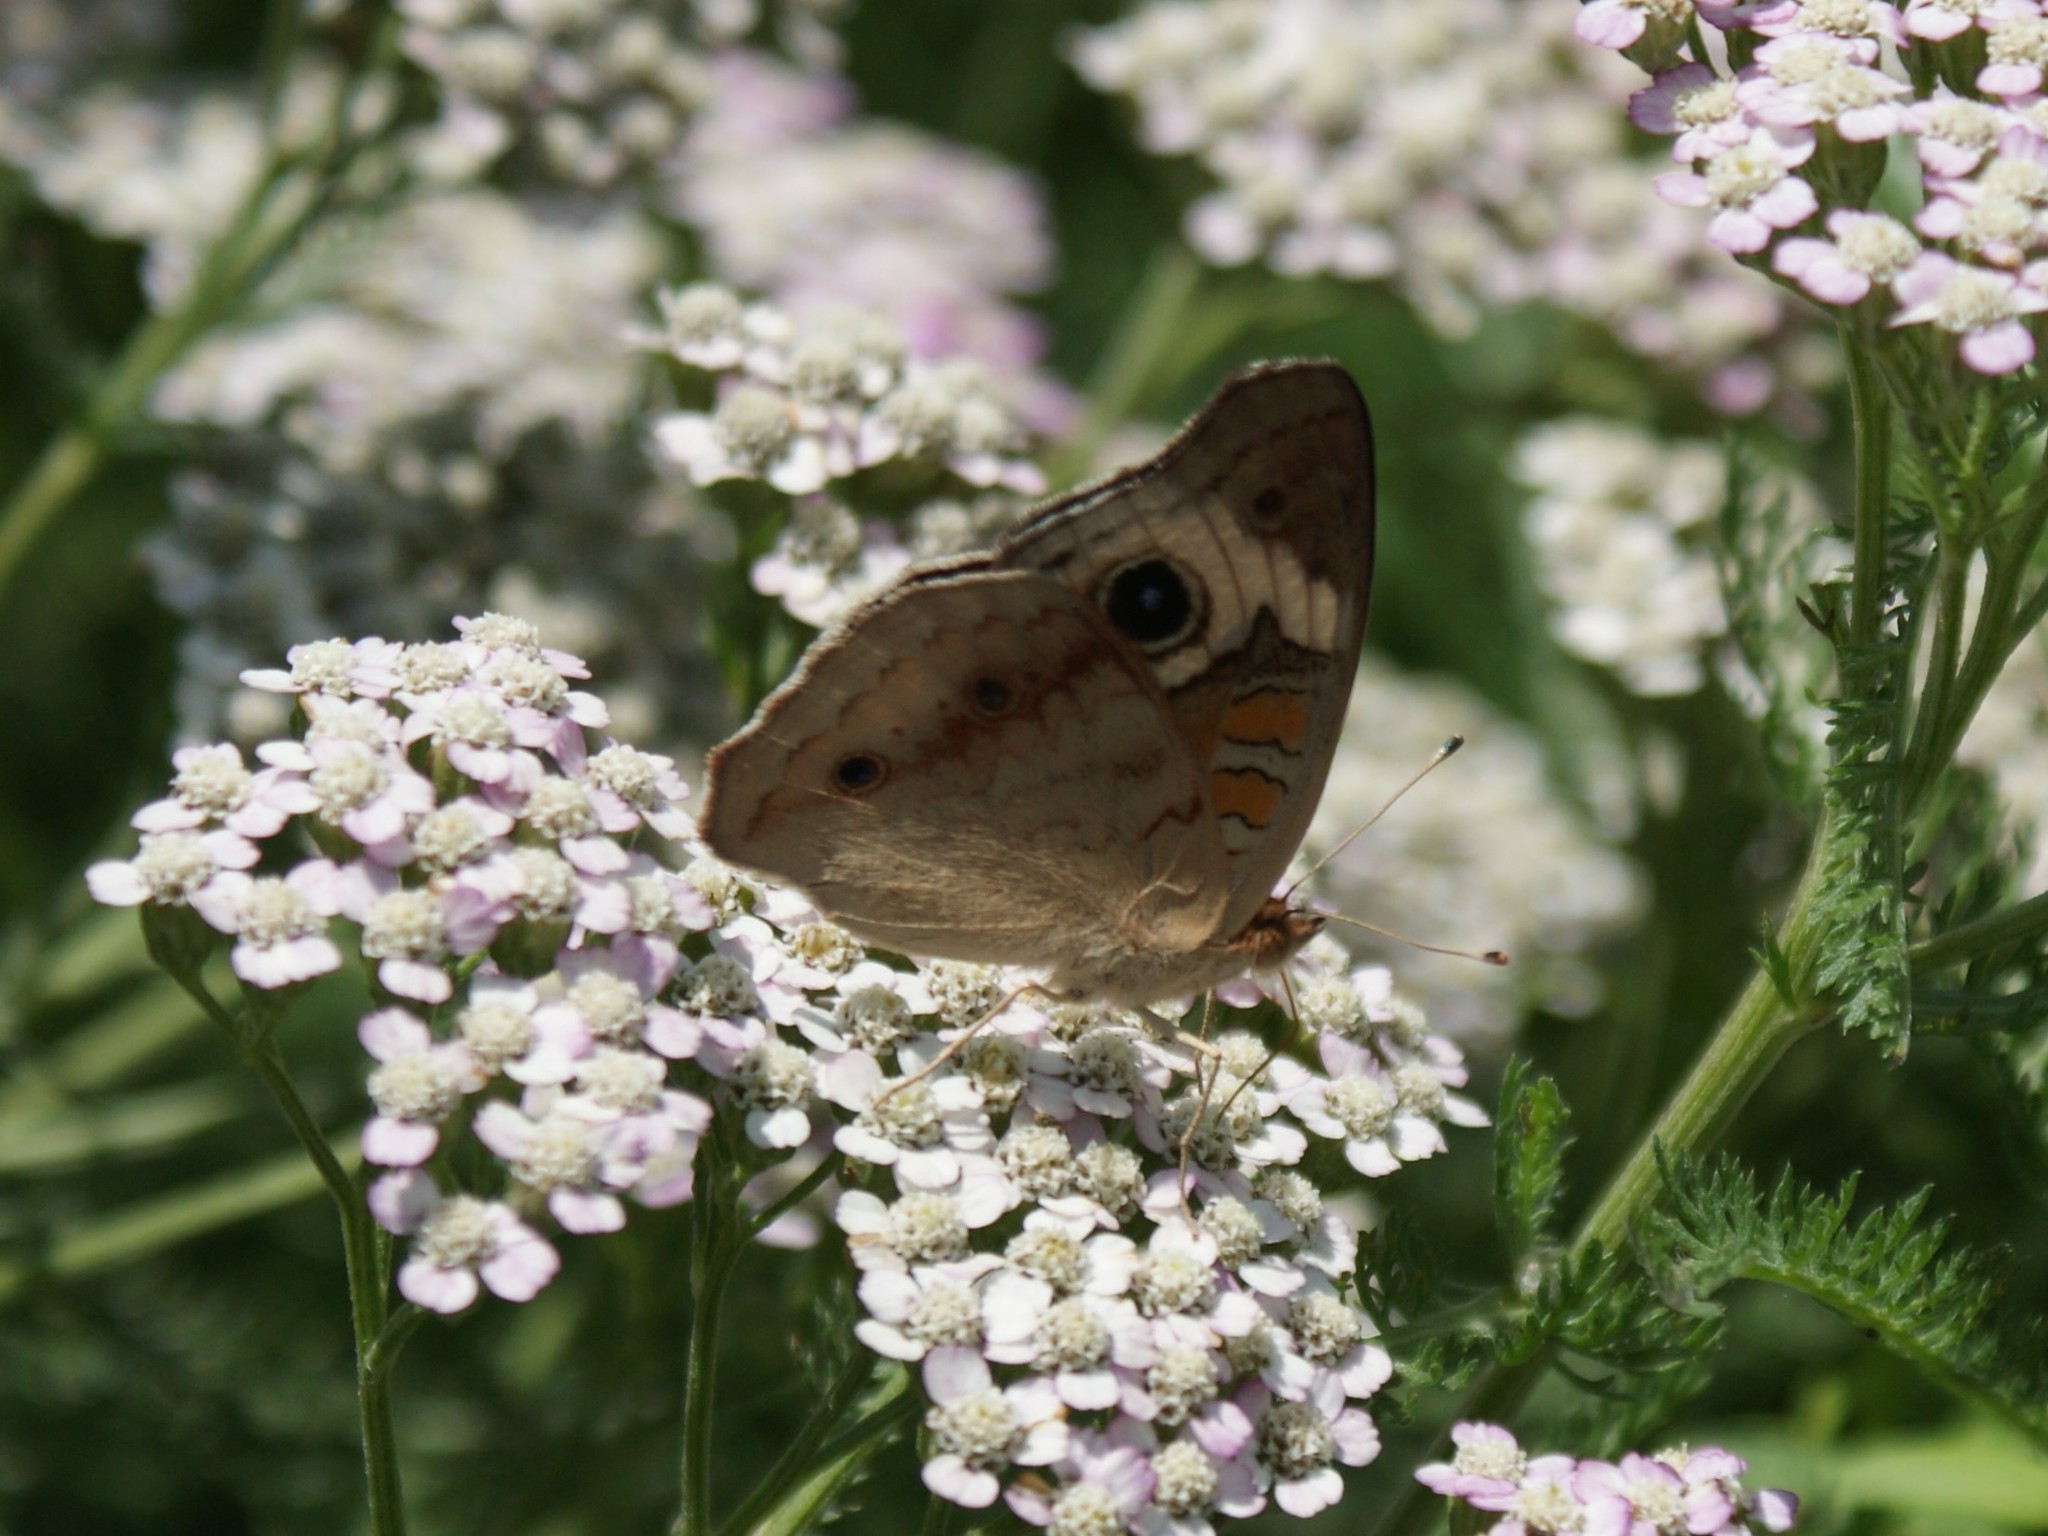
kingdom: Animalia
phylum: Arthropoda
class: Insecta
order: Lepidoptera
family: Nymphalidae
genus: Junonia
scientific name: Junonia coenia
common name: Common buckeye
